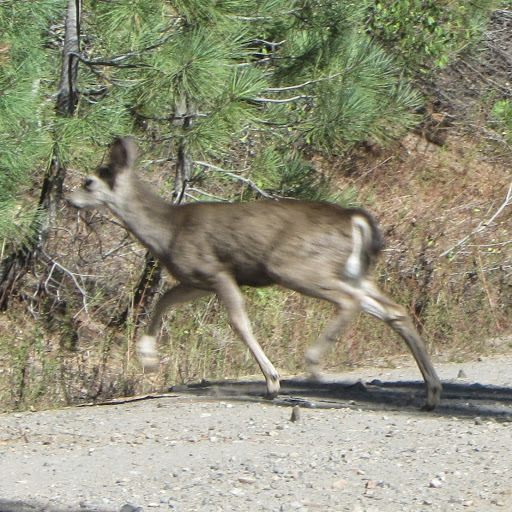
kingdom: Animalia
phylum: Chordata
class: Mammalia
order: Artiodactyla
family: Cervidae
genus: Odocoileus
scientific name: Odocoileus hemionus
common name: Mule deer
